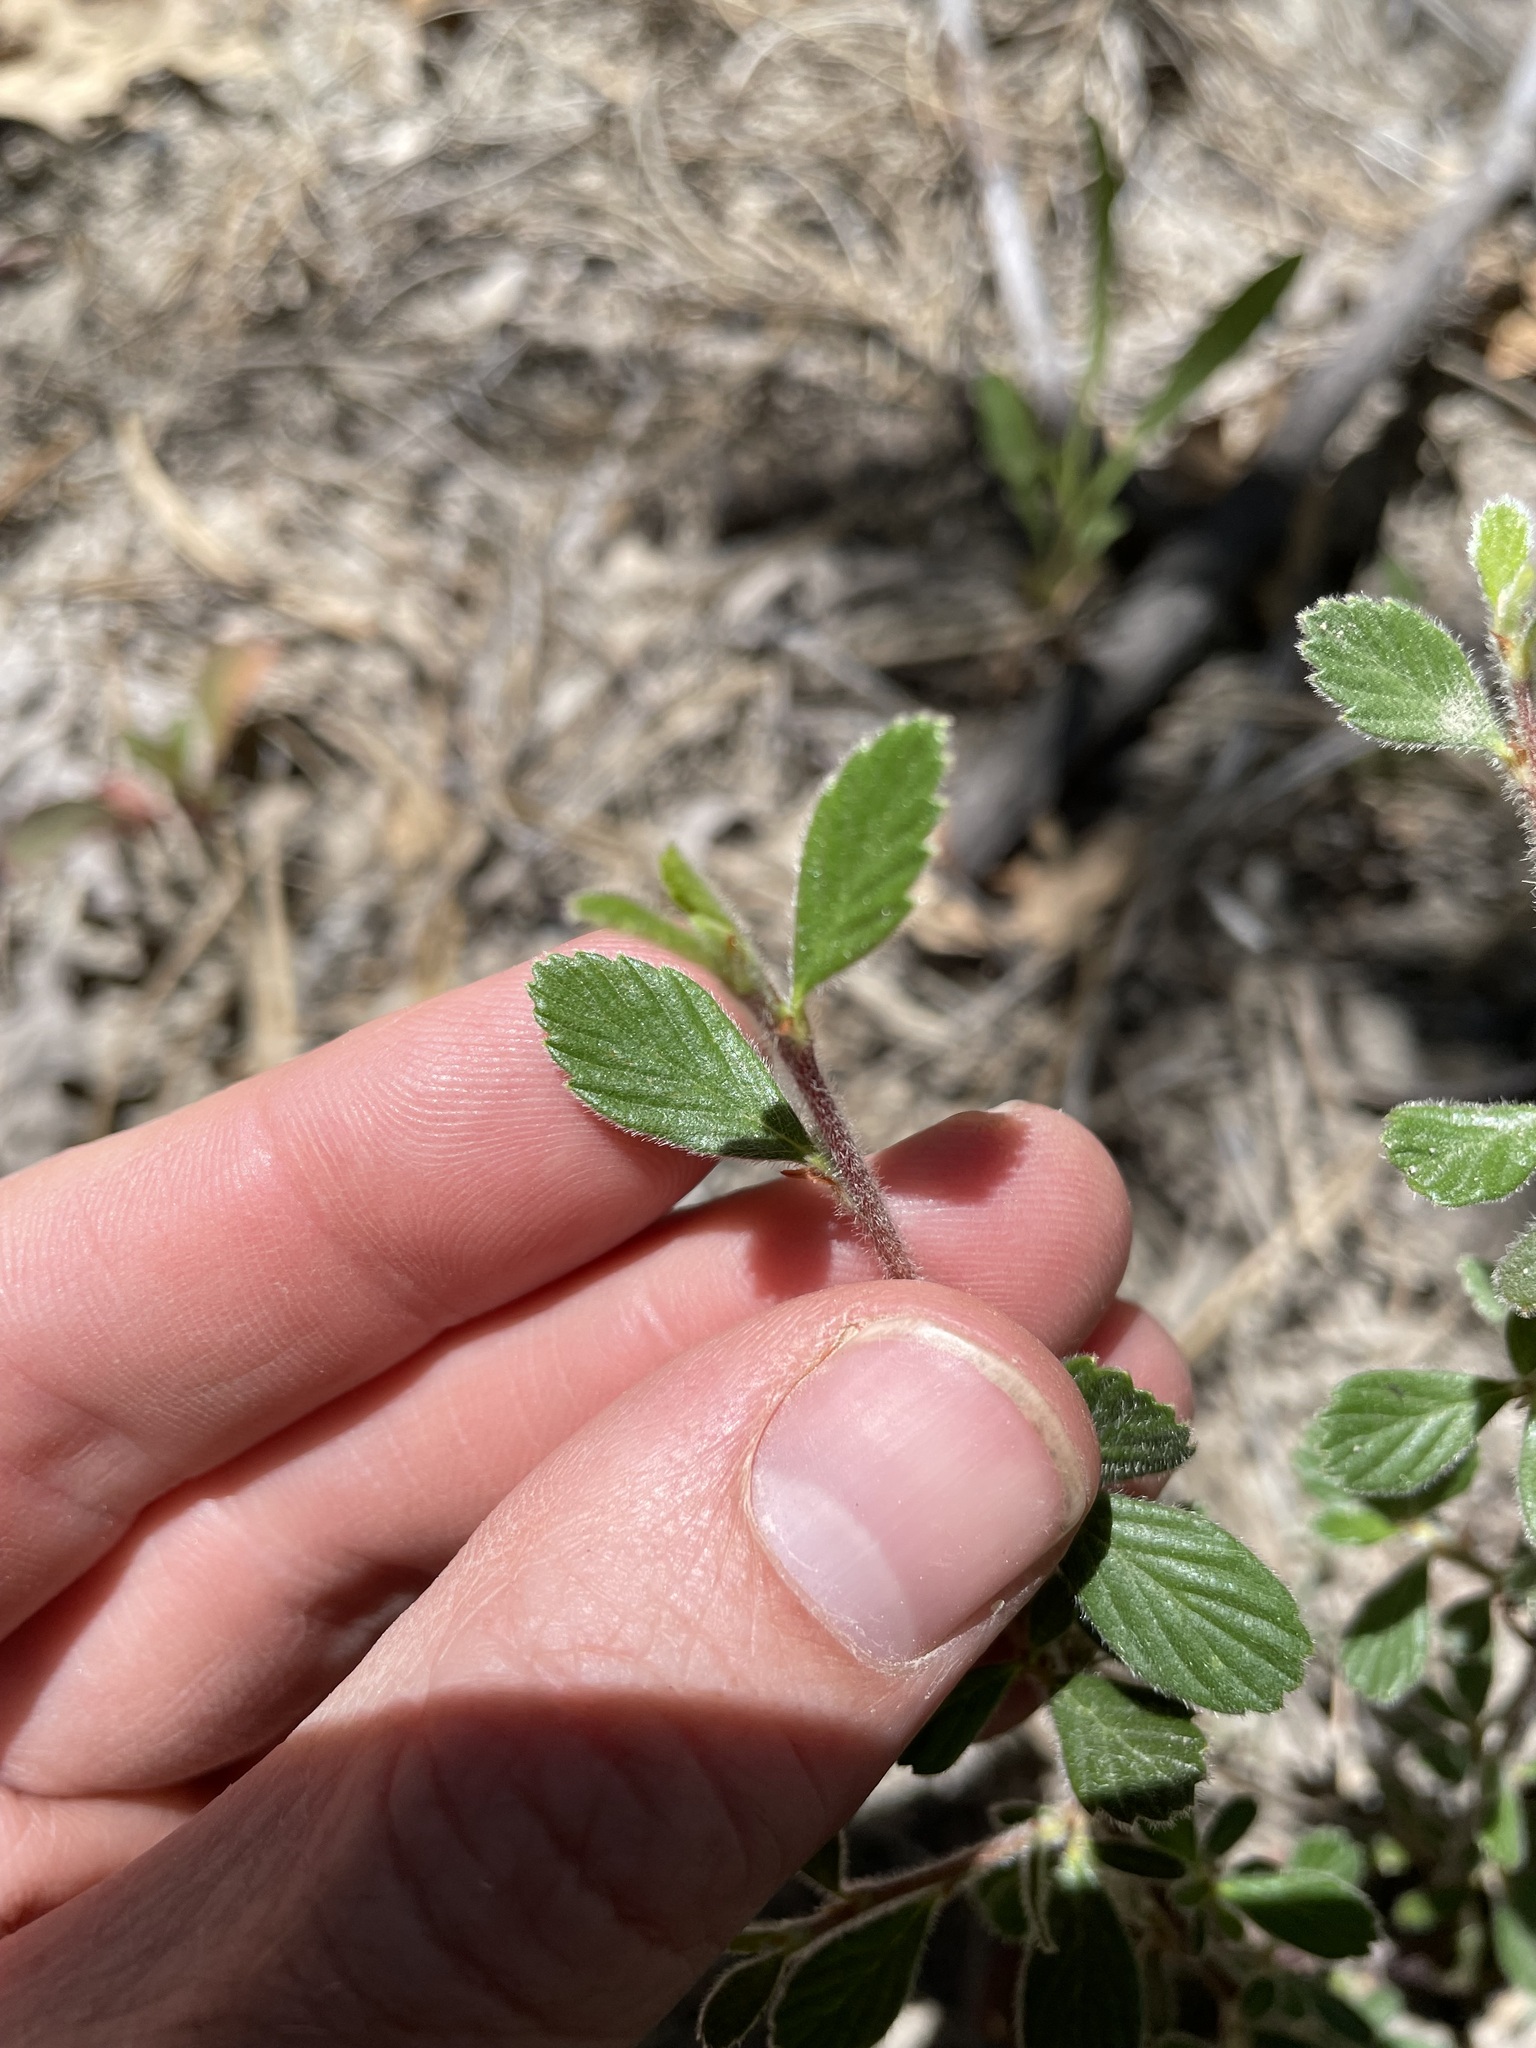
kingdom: Plantae
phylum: Tracheophyta
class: Magnoliopsida
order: Rosales
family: Rosaceae
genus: Cercocarpus
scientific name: Cercocarpus montanus
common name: Alder-leaf cercocarpus
